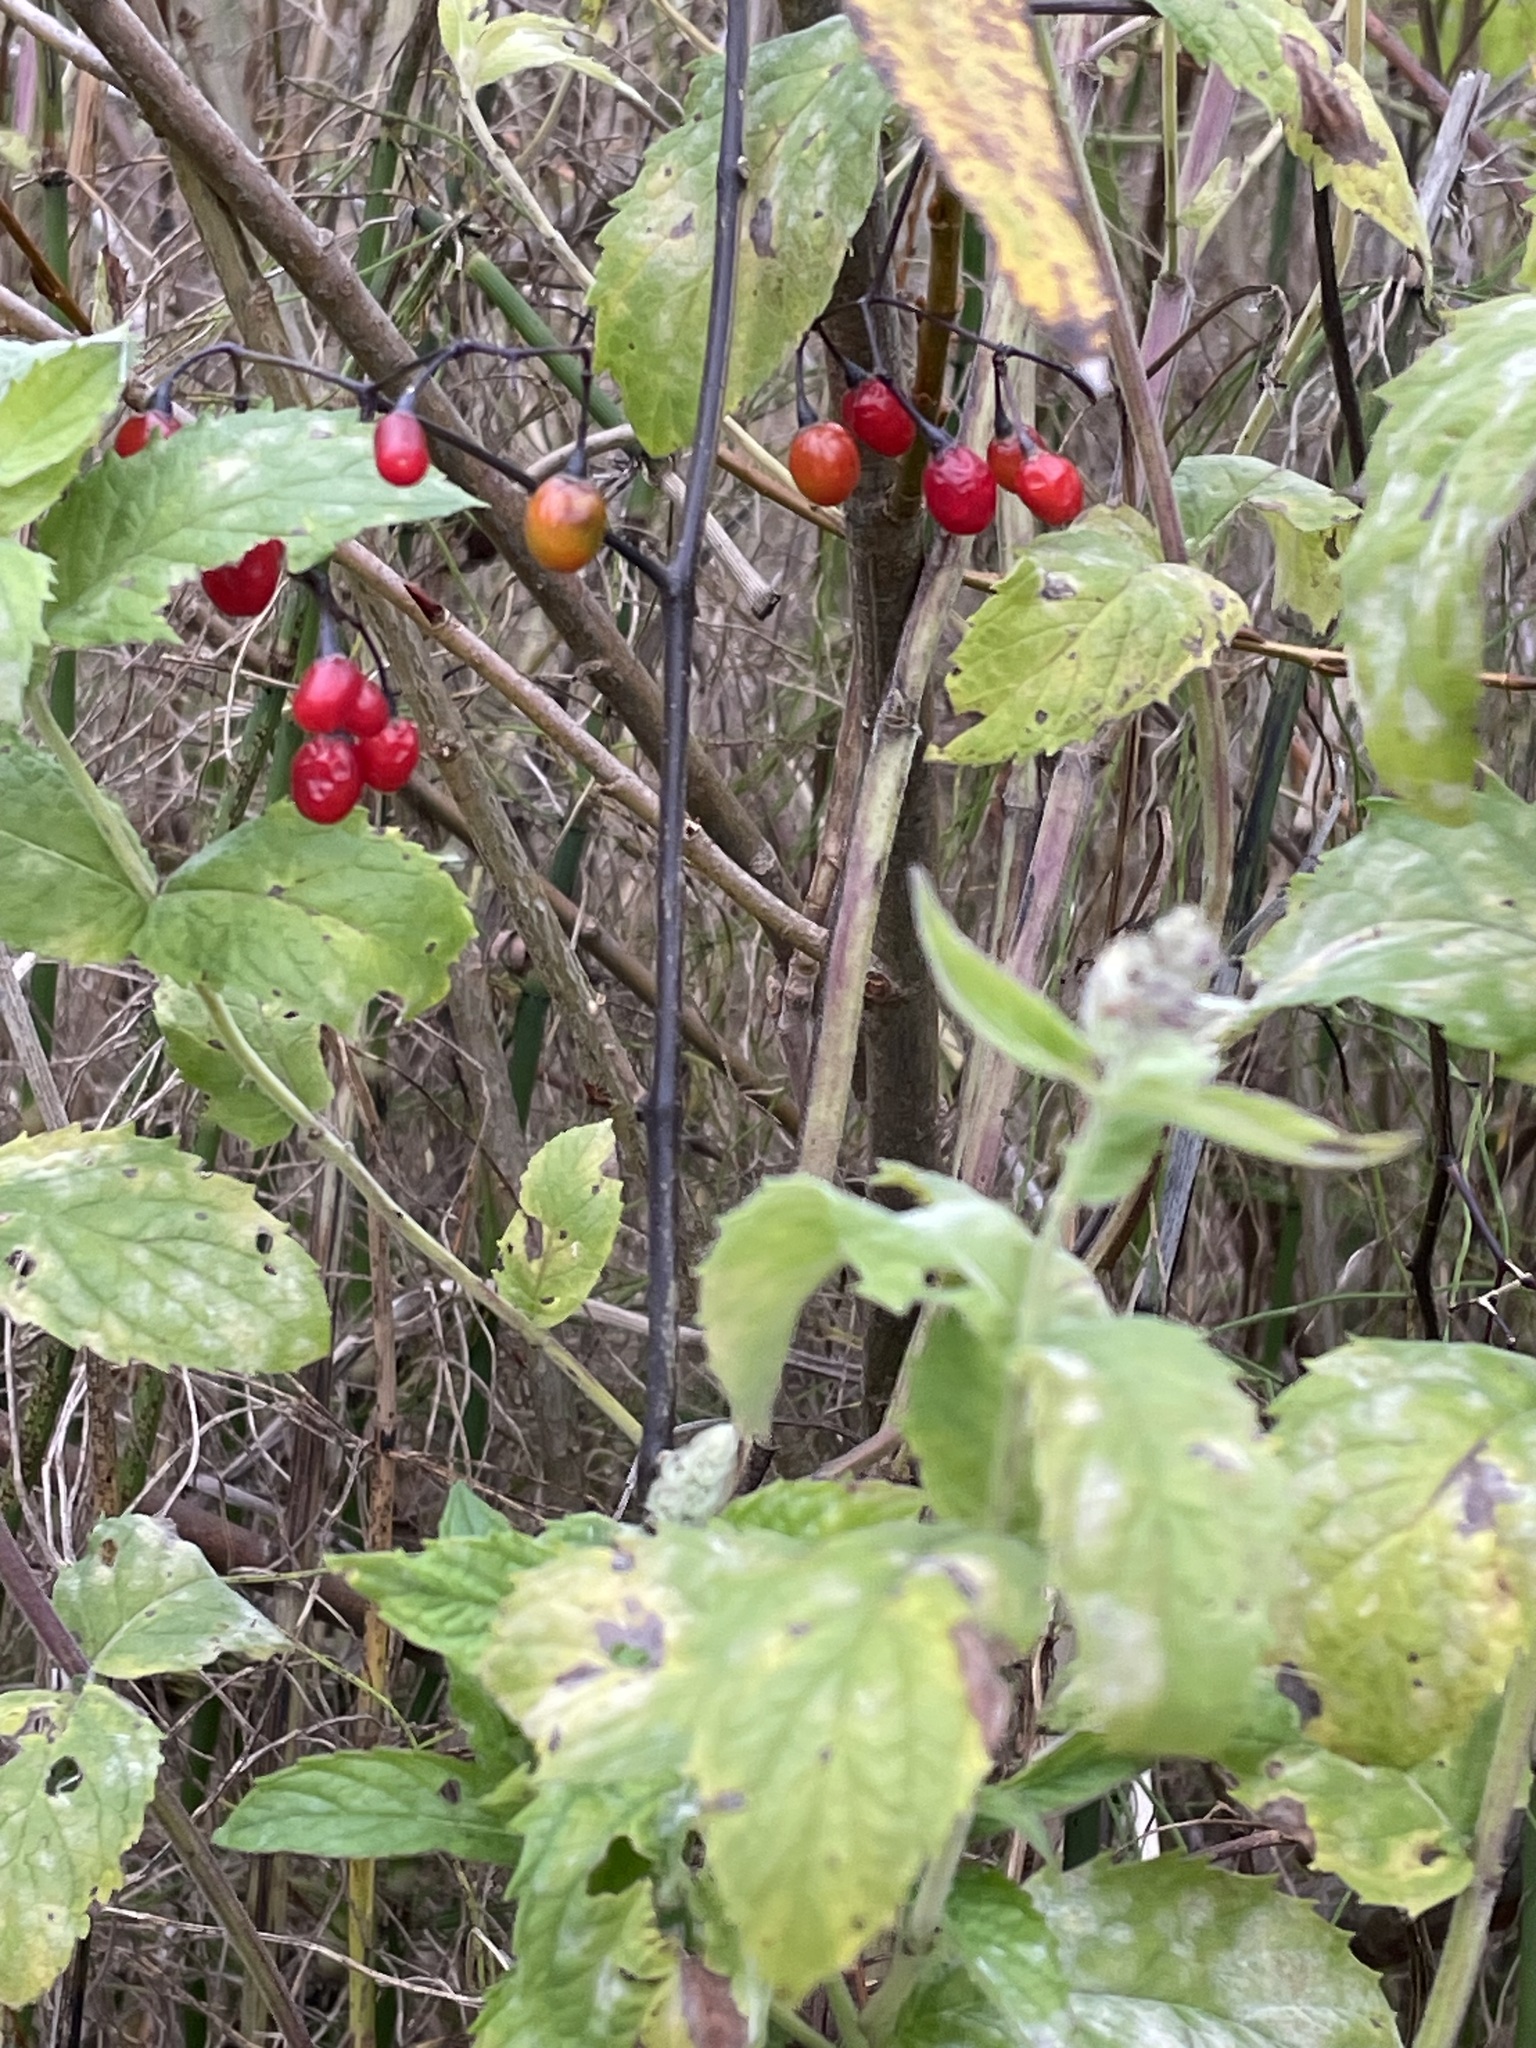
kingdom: Plantae
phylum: Tracheophyta
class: Magnoliopsida
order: Solanales
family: Solanaceae
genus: Solanum
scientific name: Solanum dulcamara
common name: Climbing nightshade
